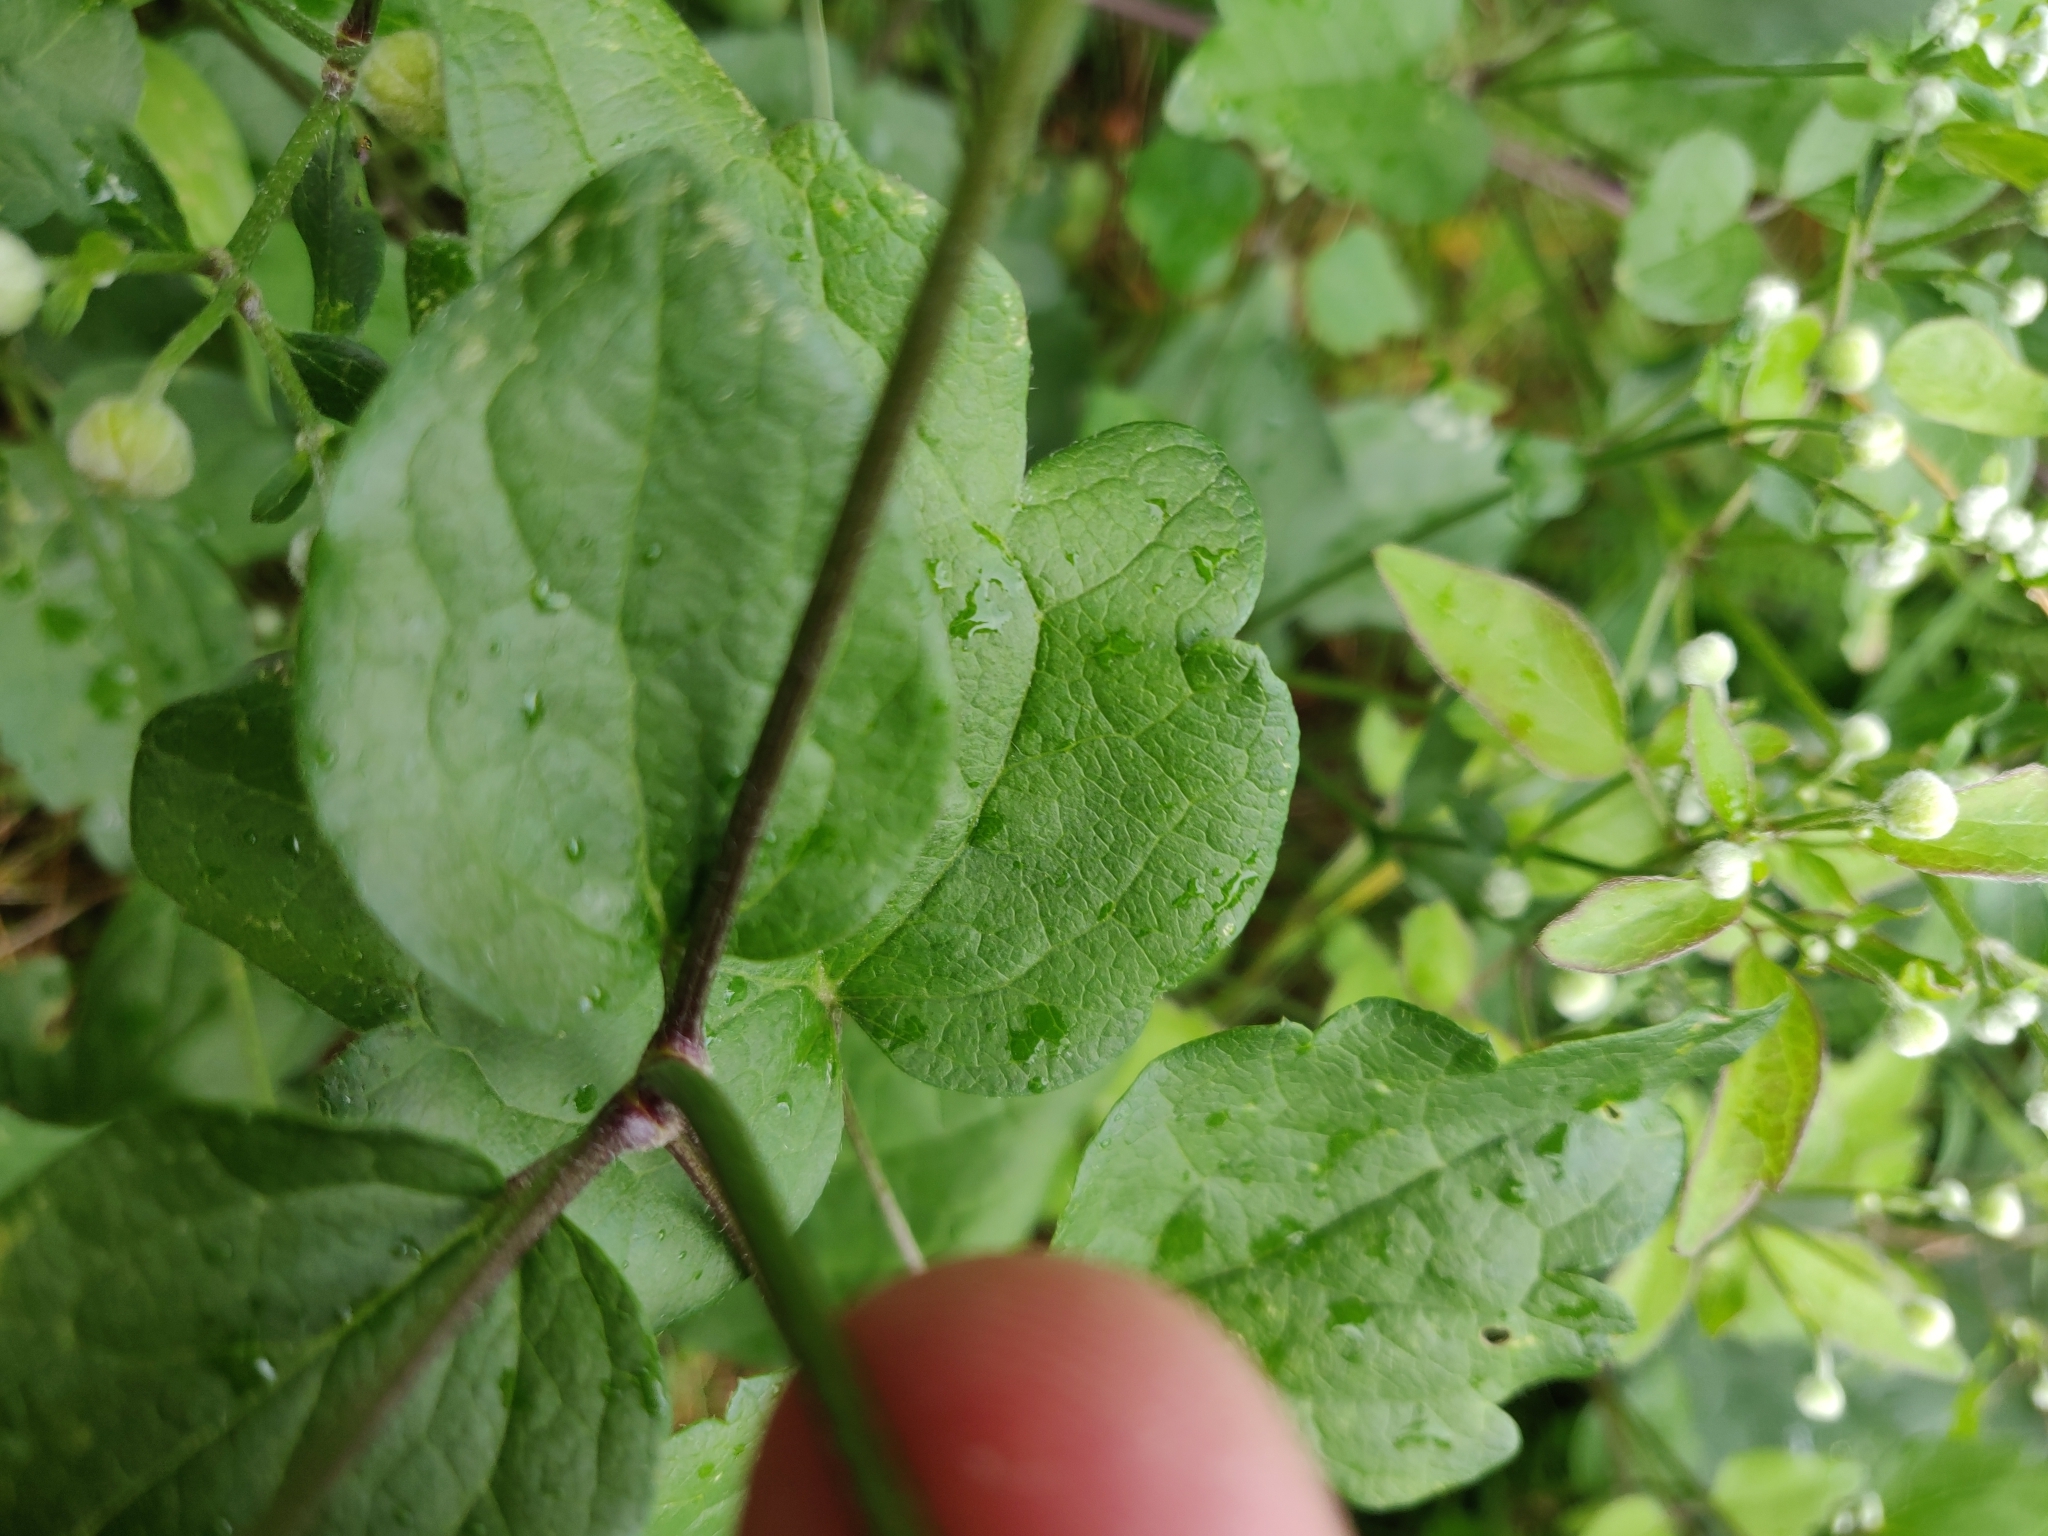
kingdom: Plantae
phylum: Tracheophyta
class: Magnoliopsida
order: Ranunculales
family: Ranunculaceae
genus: Clematis
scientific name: Clematis vitalba
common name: Evergreen clematis
